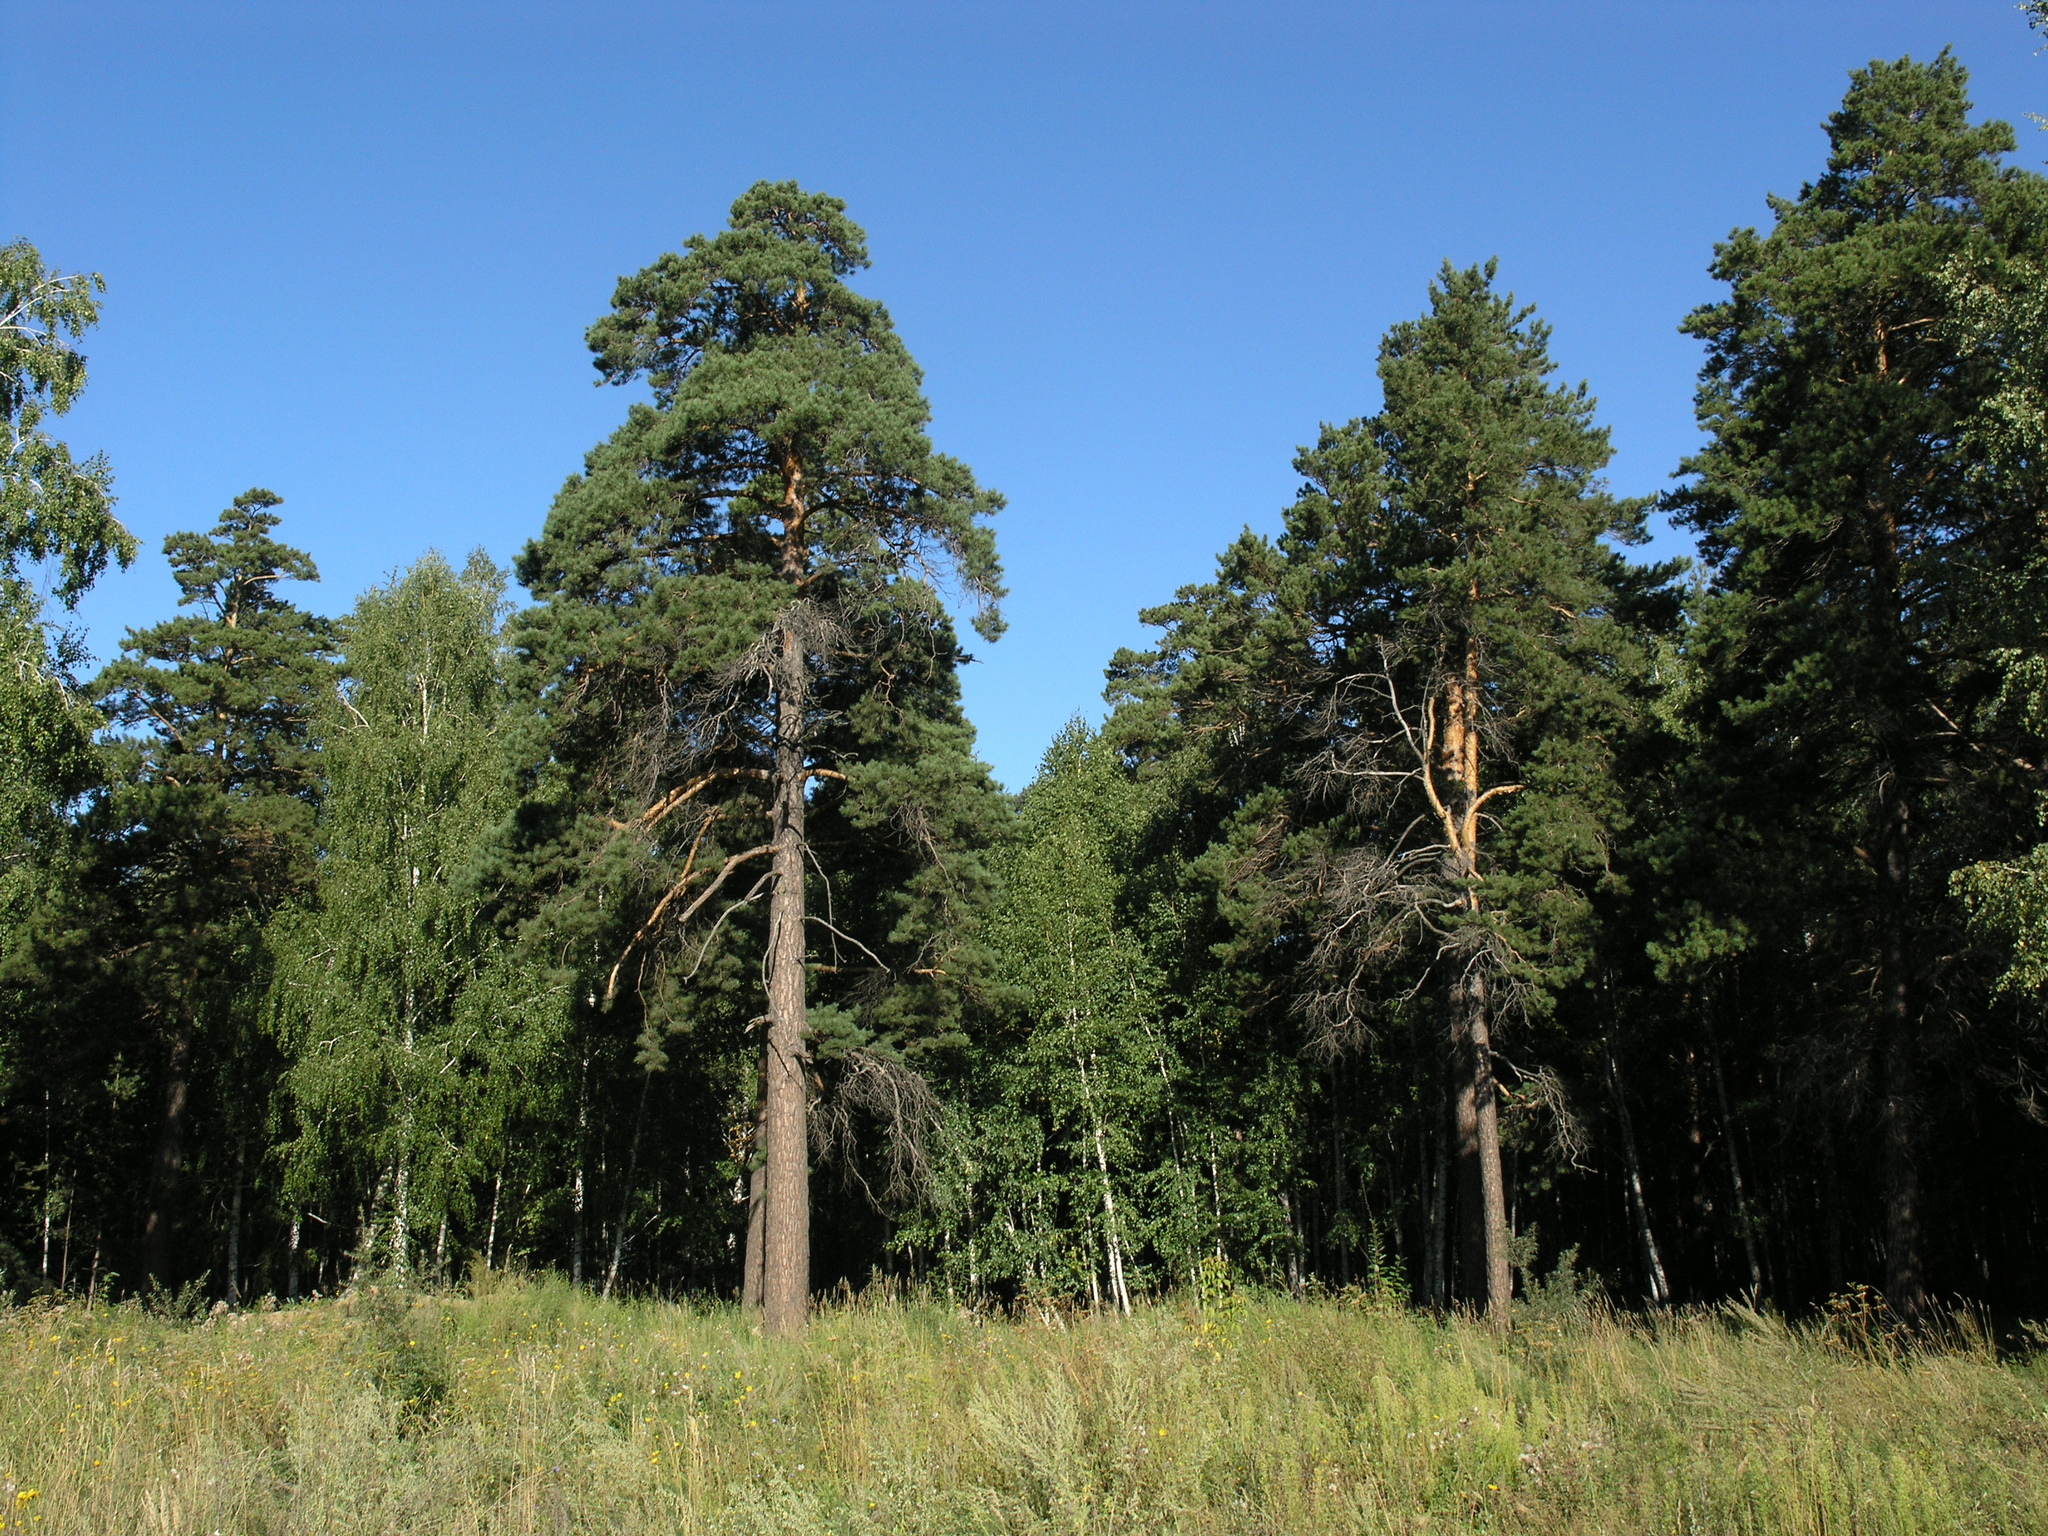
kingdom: Plantae
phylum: Tracheophyta
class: Pinopsida
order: Pinales
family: Pinaceae
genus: Pinus
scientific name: Pinus sylvestris
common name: Scots pine
